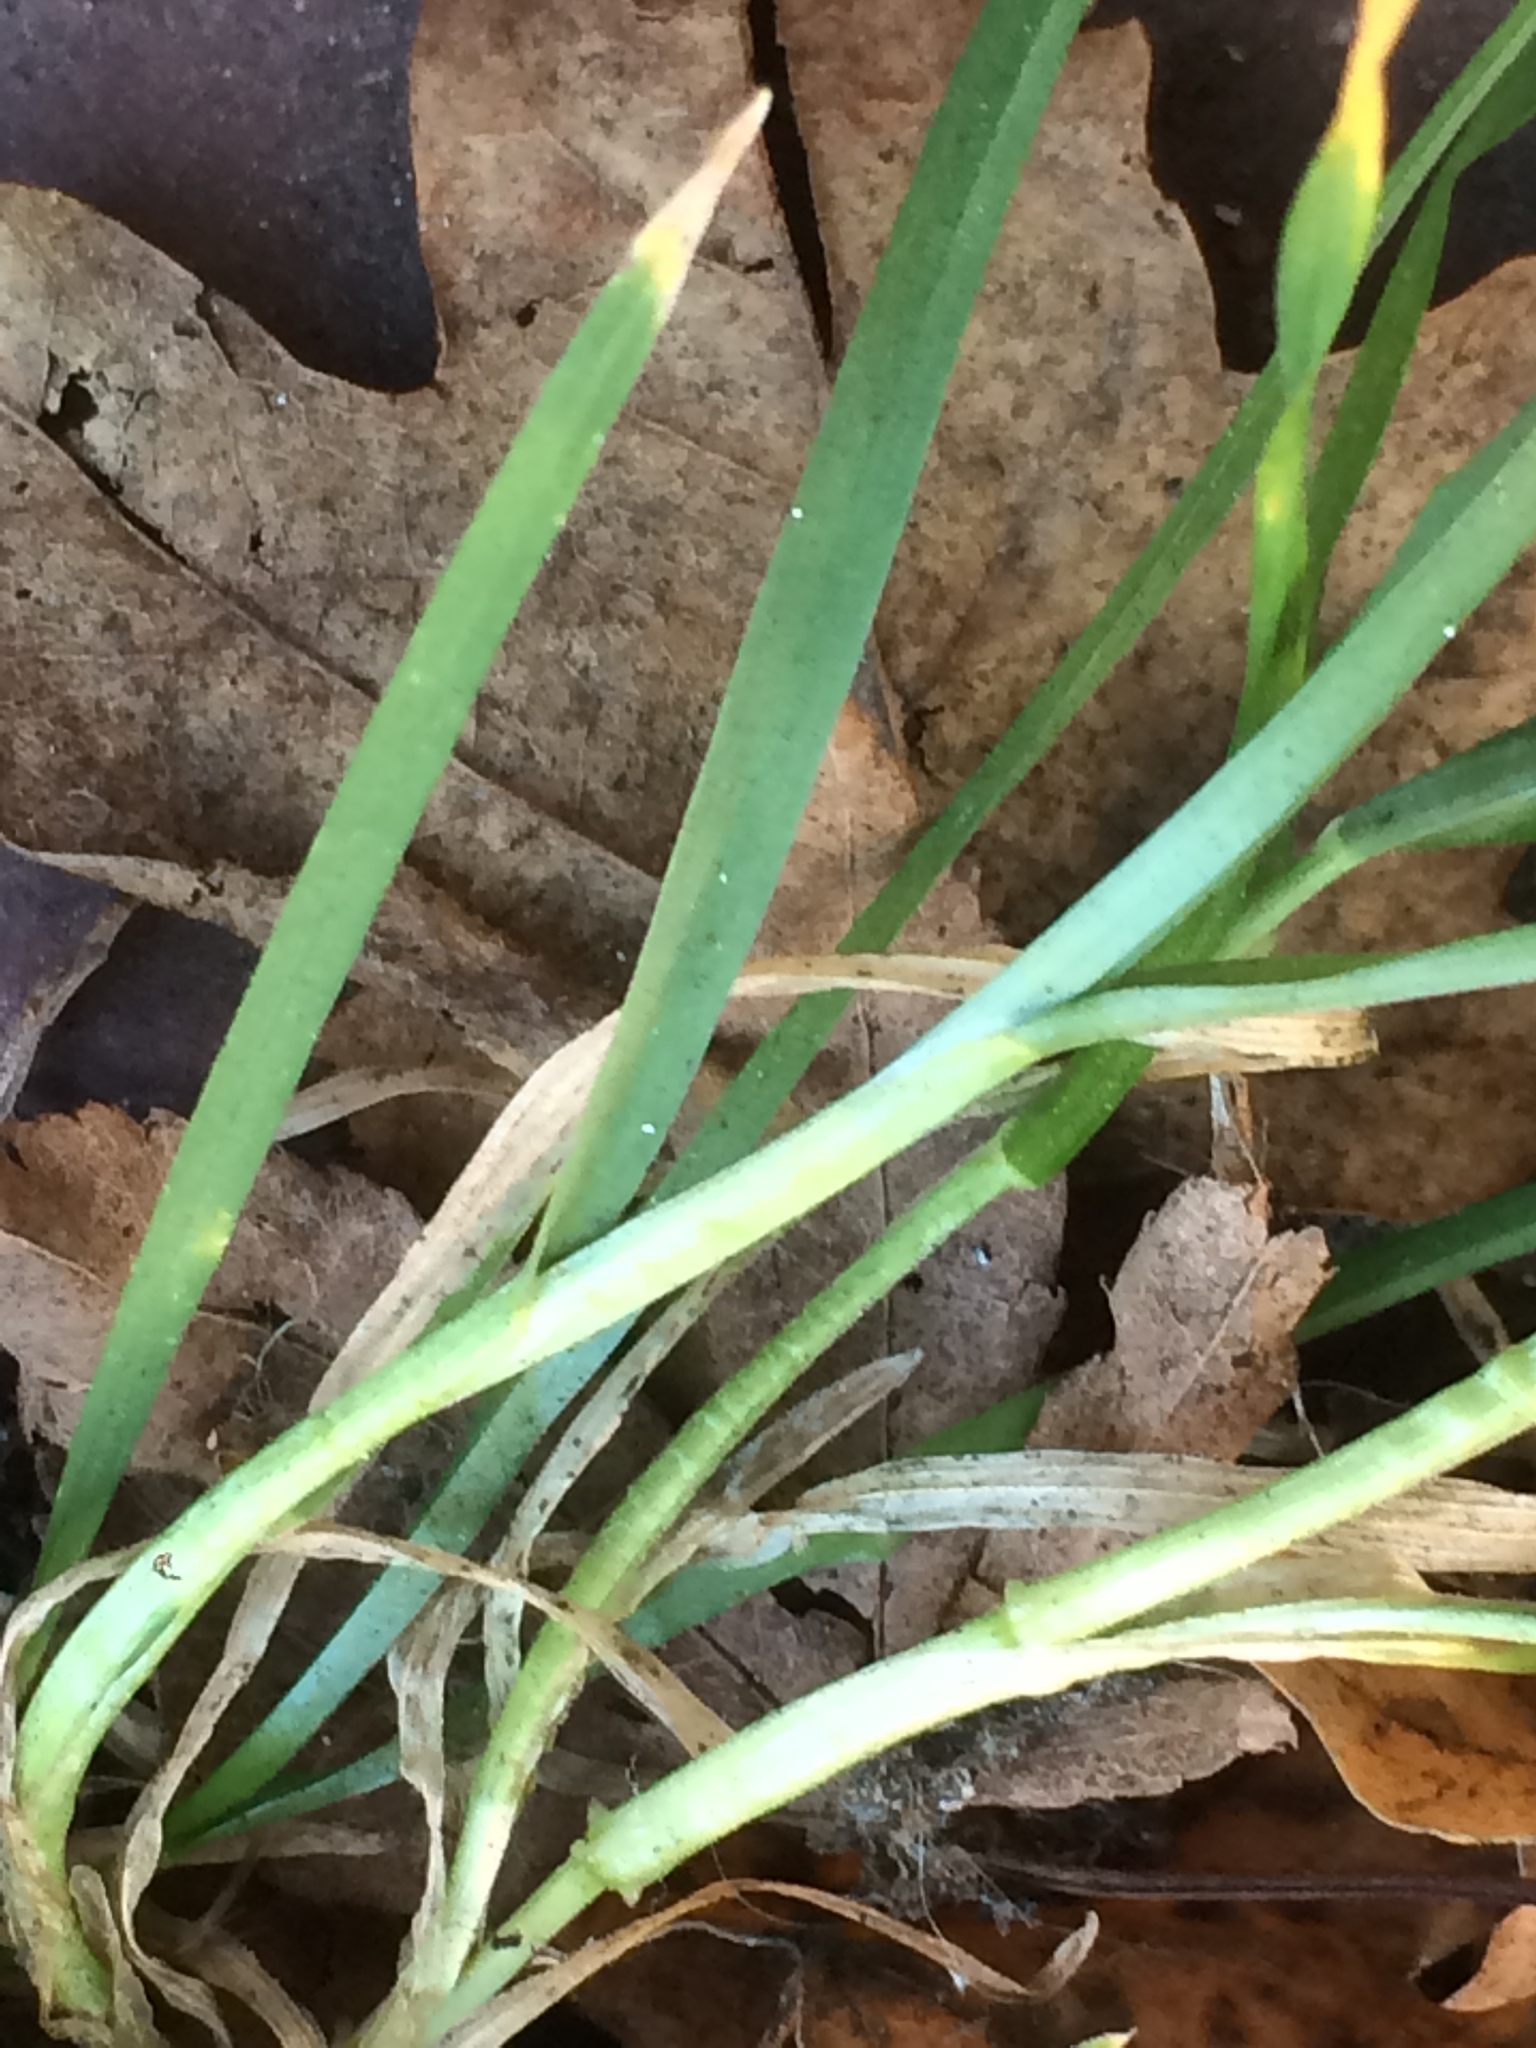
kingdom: Plantae
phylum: Tracheophyta
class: Liliopsida
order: Poales
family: Poaceae
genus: Poa
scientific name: Poa annua
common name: Annual bluegrass
